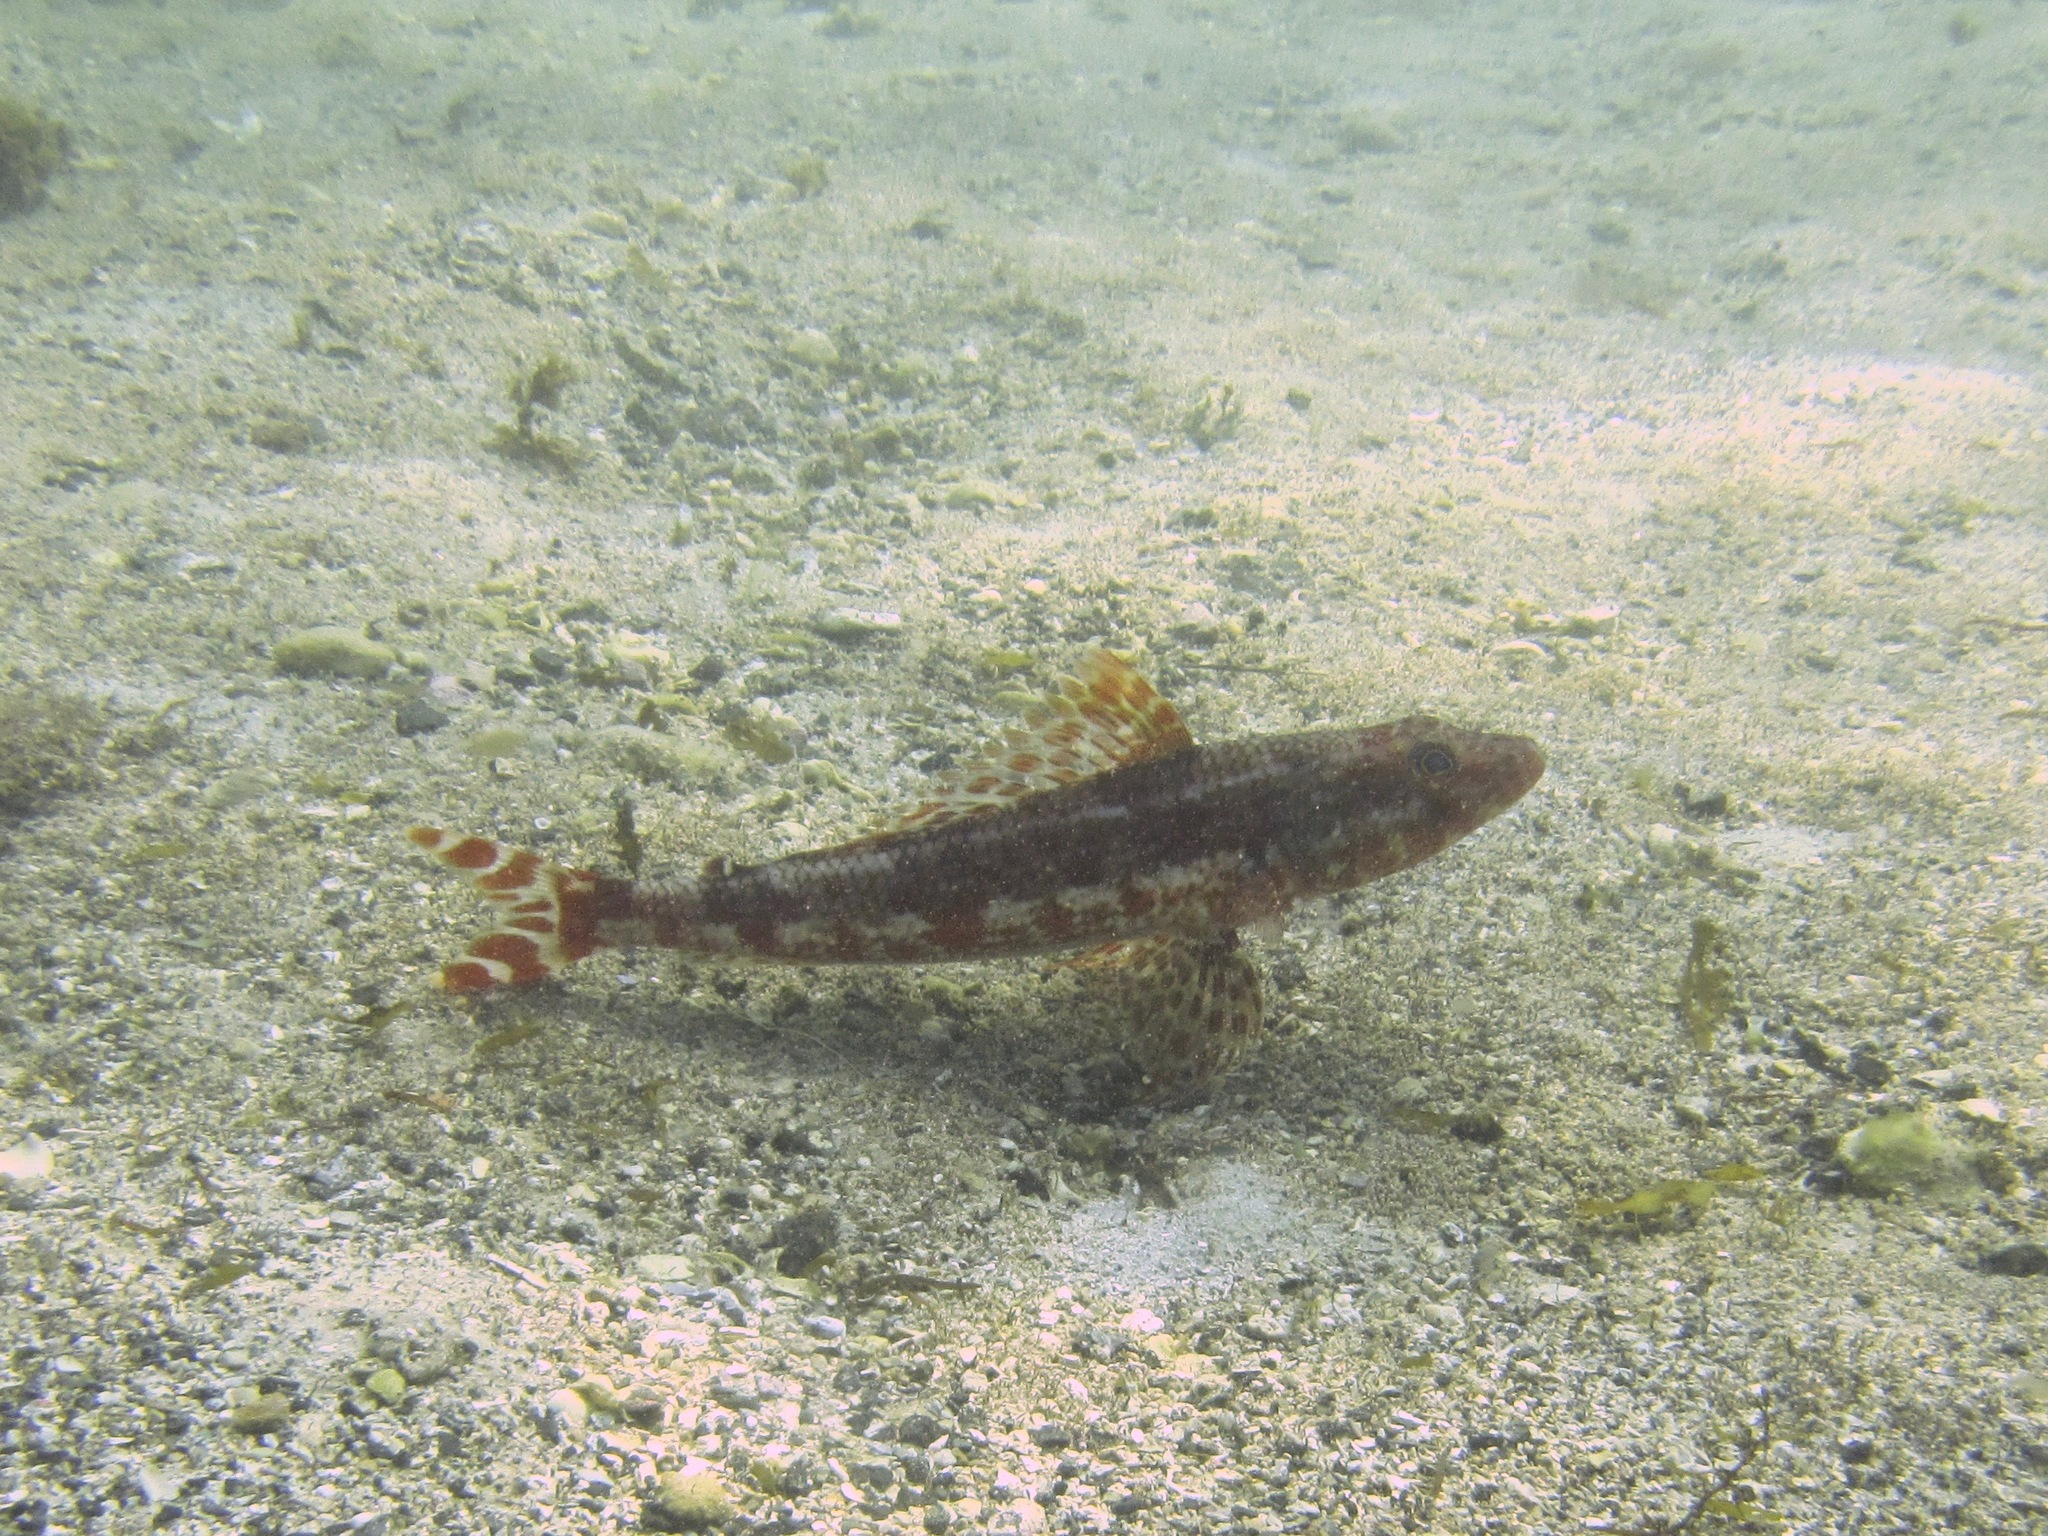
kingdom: Animalia
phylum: Chordata
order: Aulopiformes
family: Aulopidae
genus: Latropiscis
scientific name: Latropiscis purpurissatus
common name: Sergeant baker
